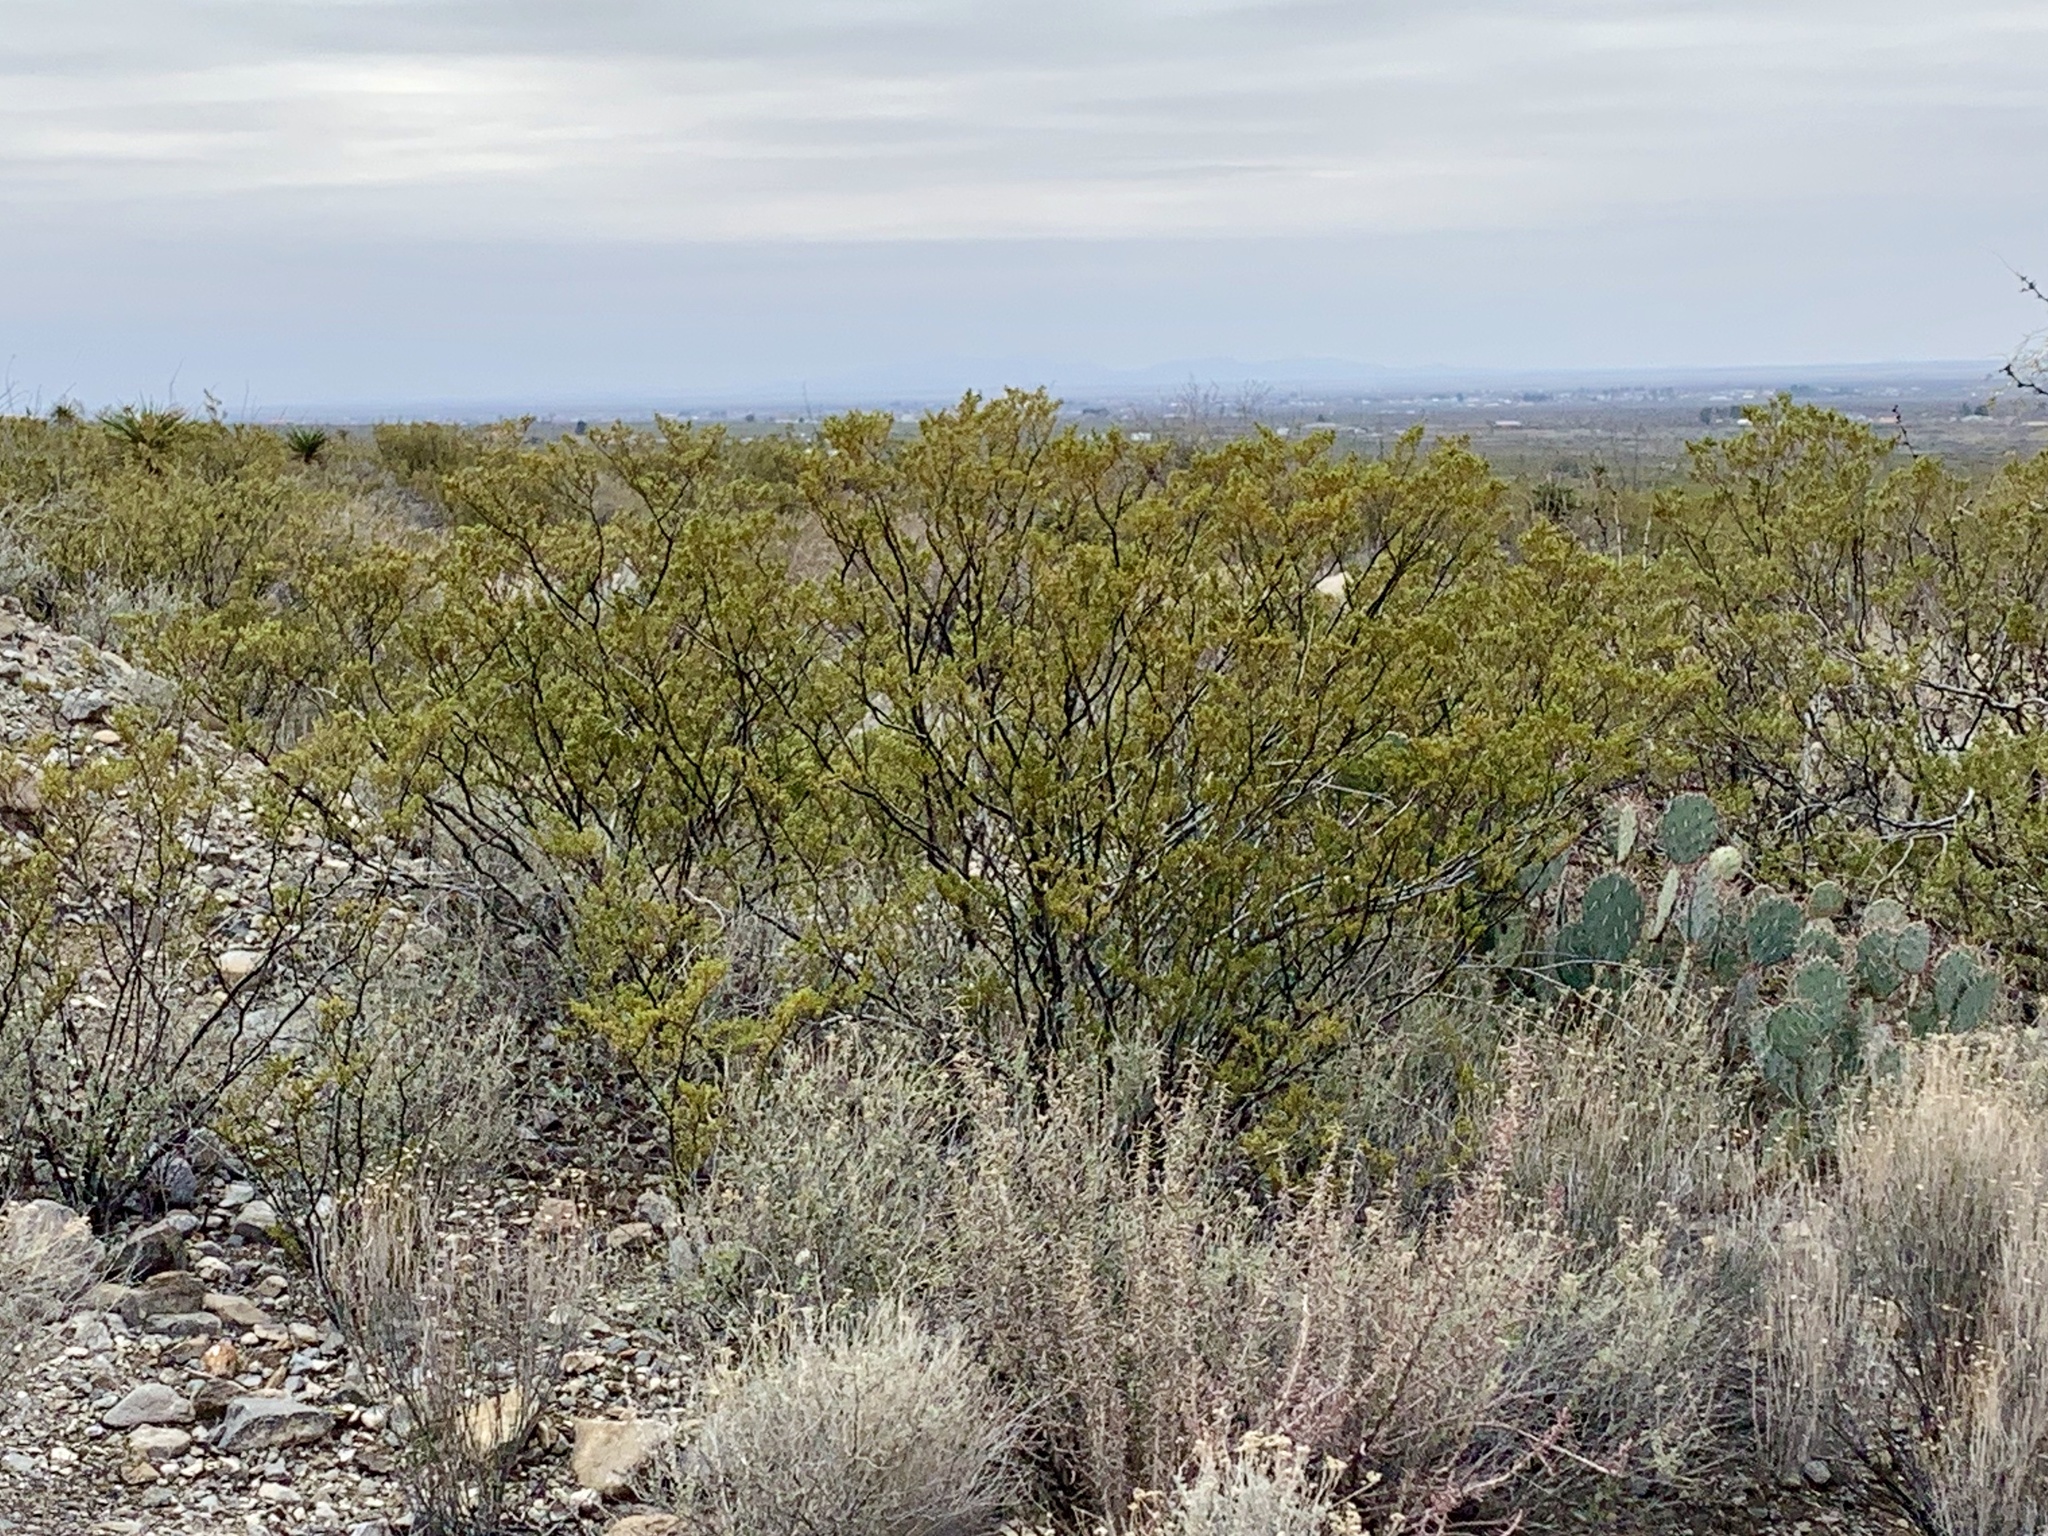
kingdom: Plantae
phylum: Tracheophyta
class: Magnoliopsida
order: Zygophyllales
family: Zygophyllaceae
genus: Larrea
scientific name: Larrea tridentata
